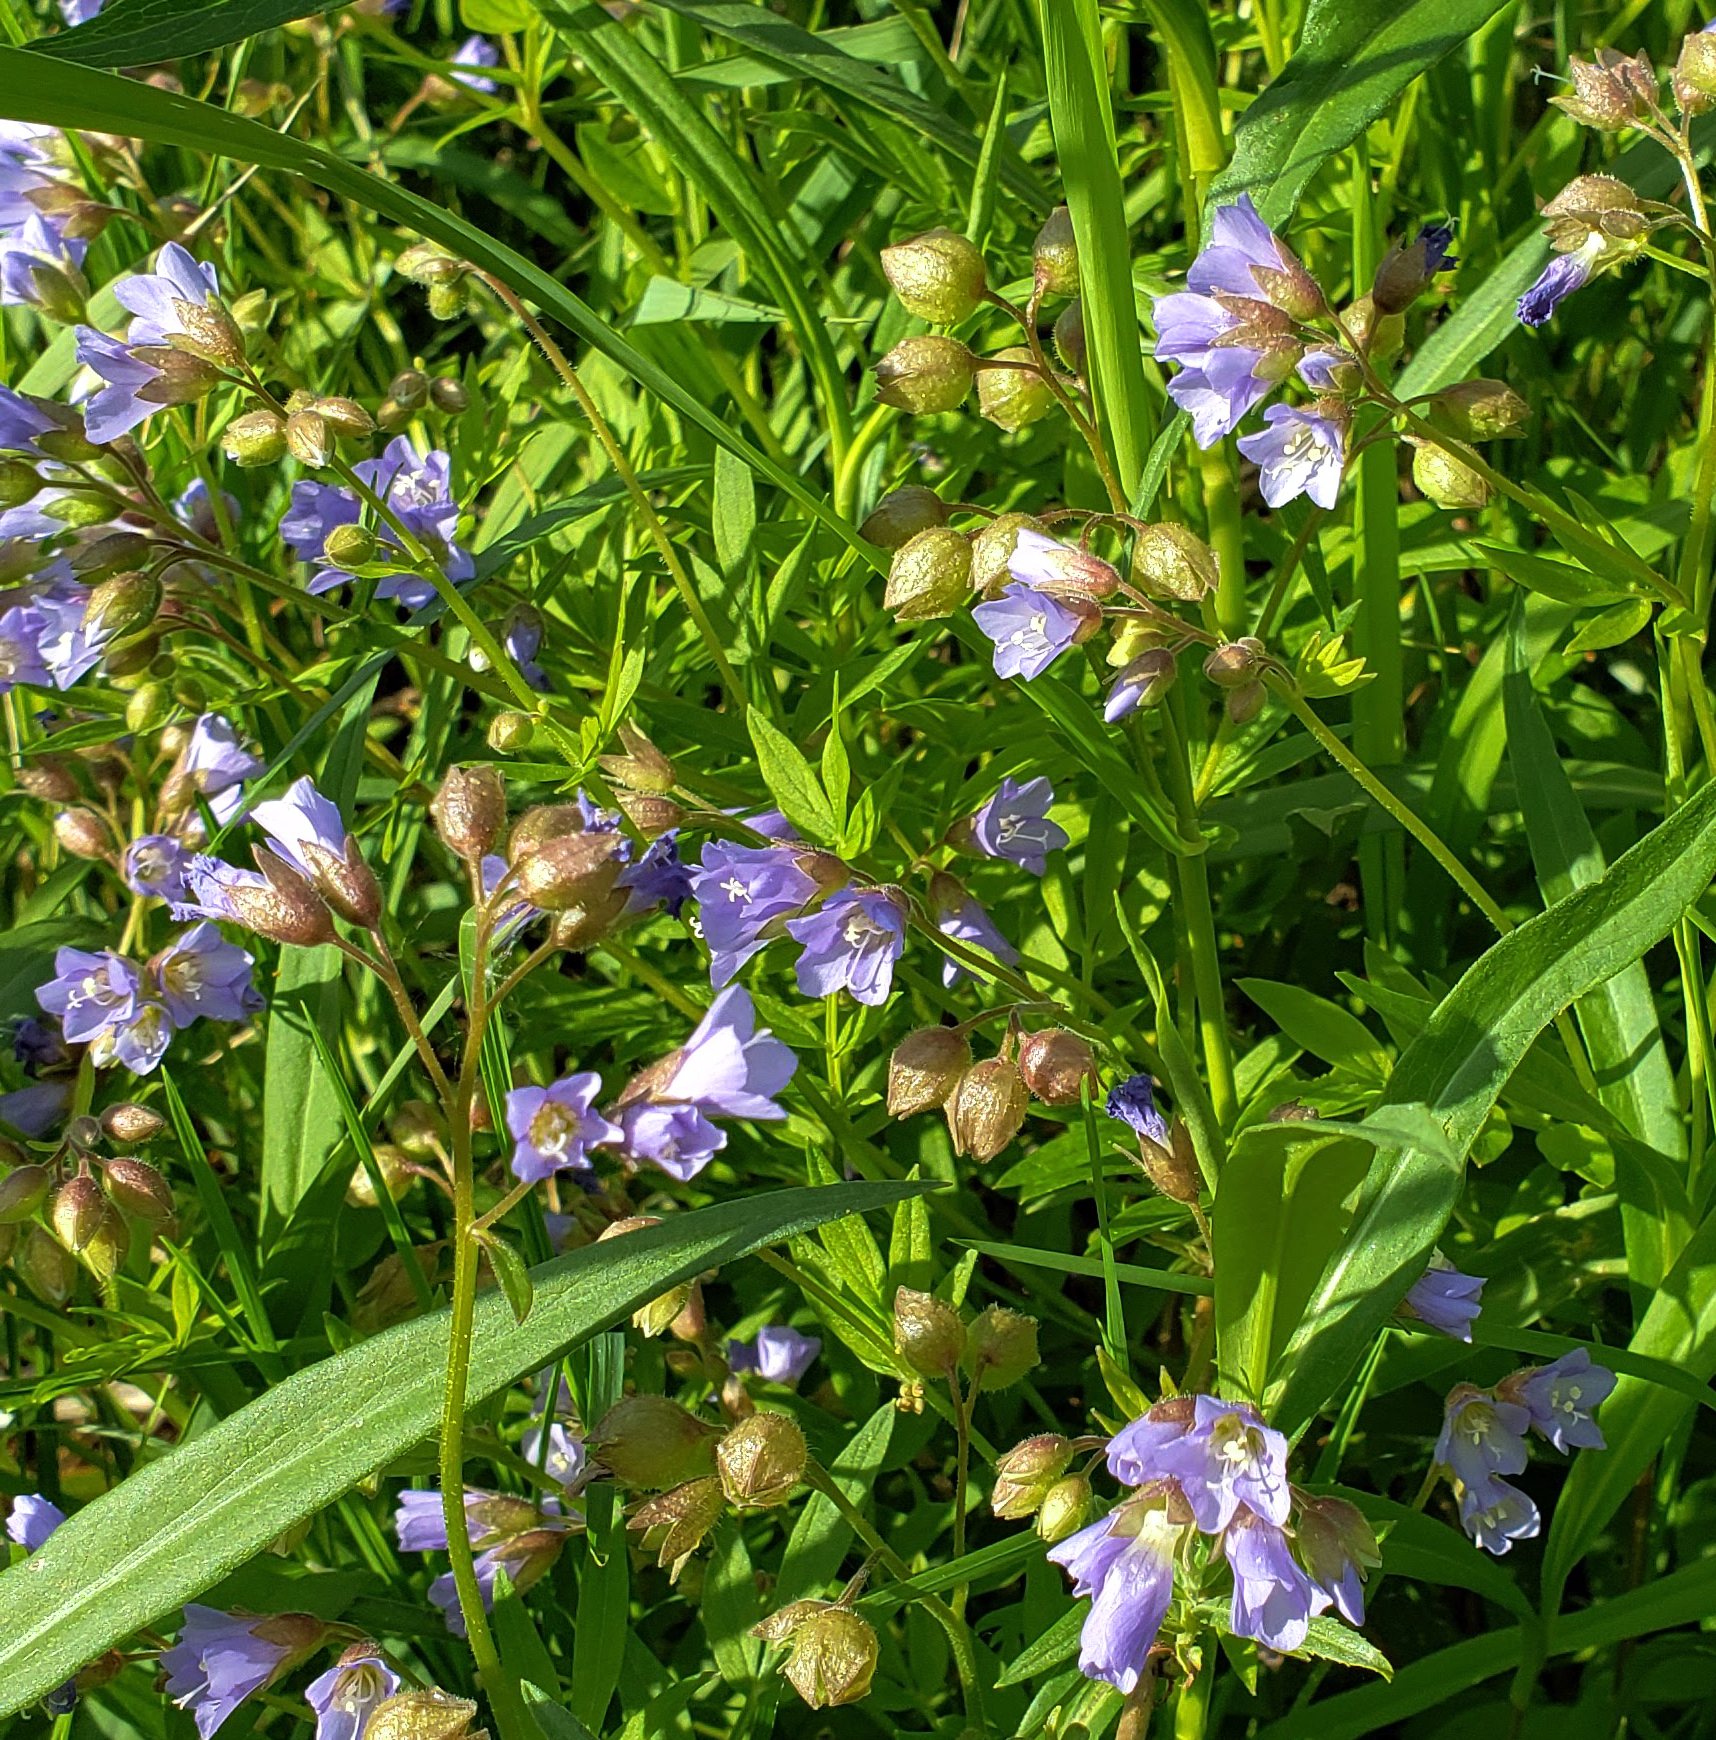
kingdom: Plantae
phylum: Tracheophyta
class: Magnoliopsida
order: Ericales
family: Polemoniaceae
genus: Polemonium
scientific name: Polemonium reptans
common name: Creeping jacob's-ladder
